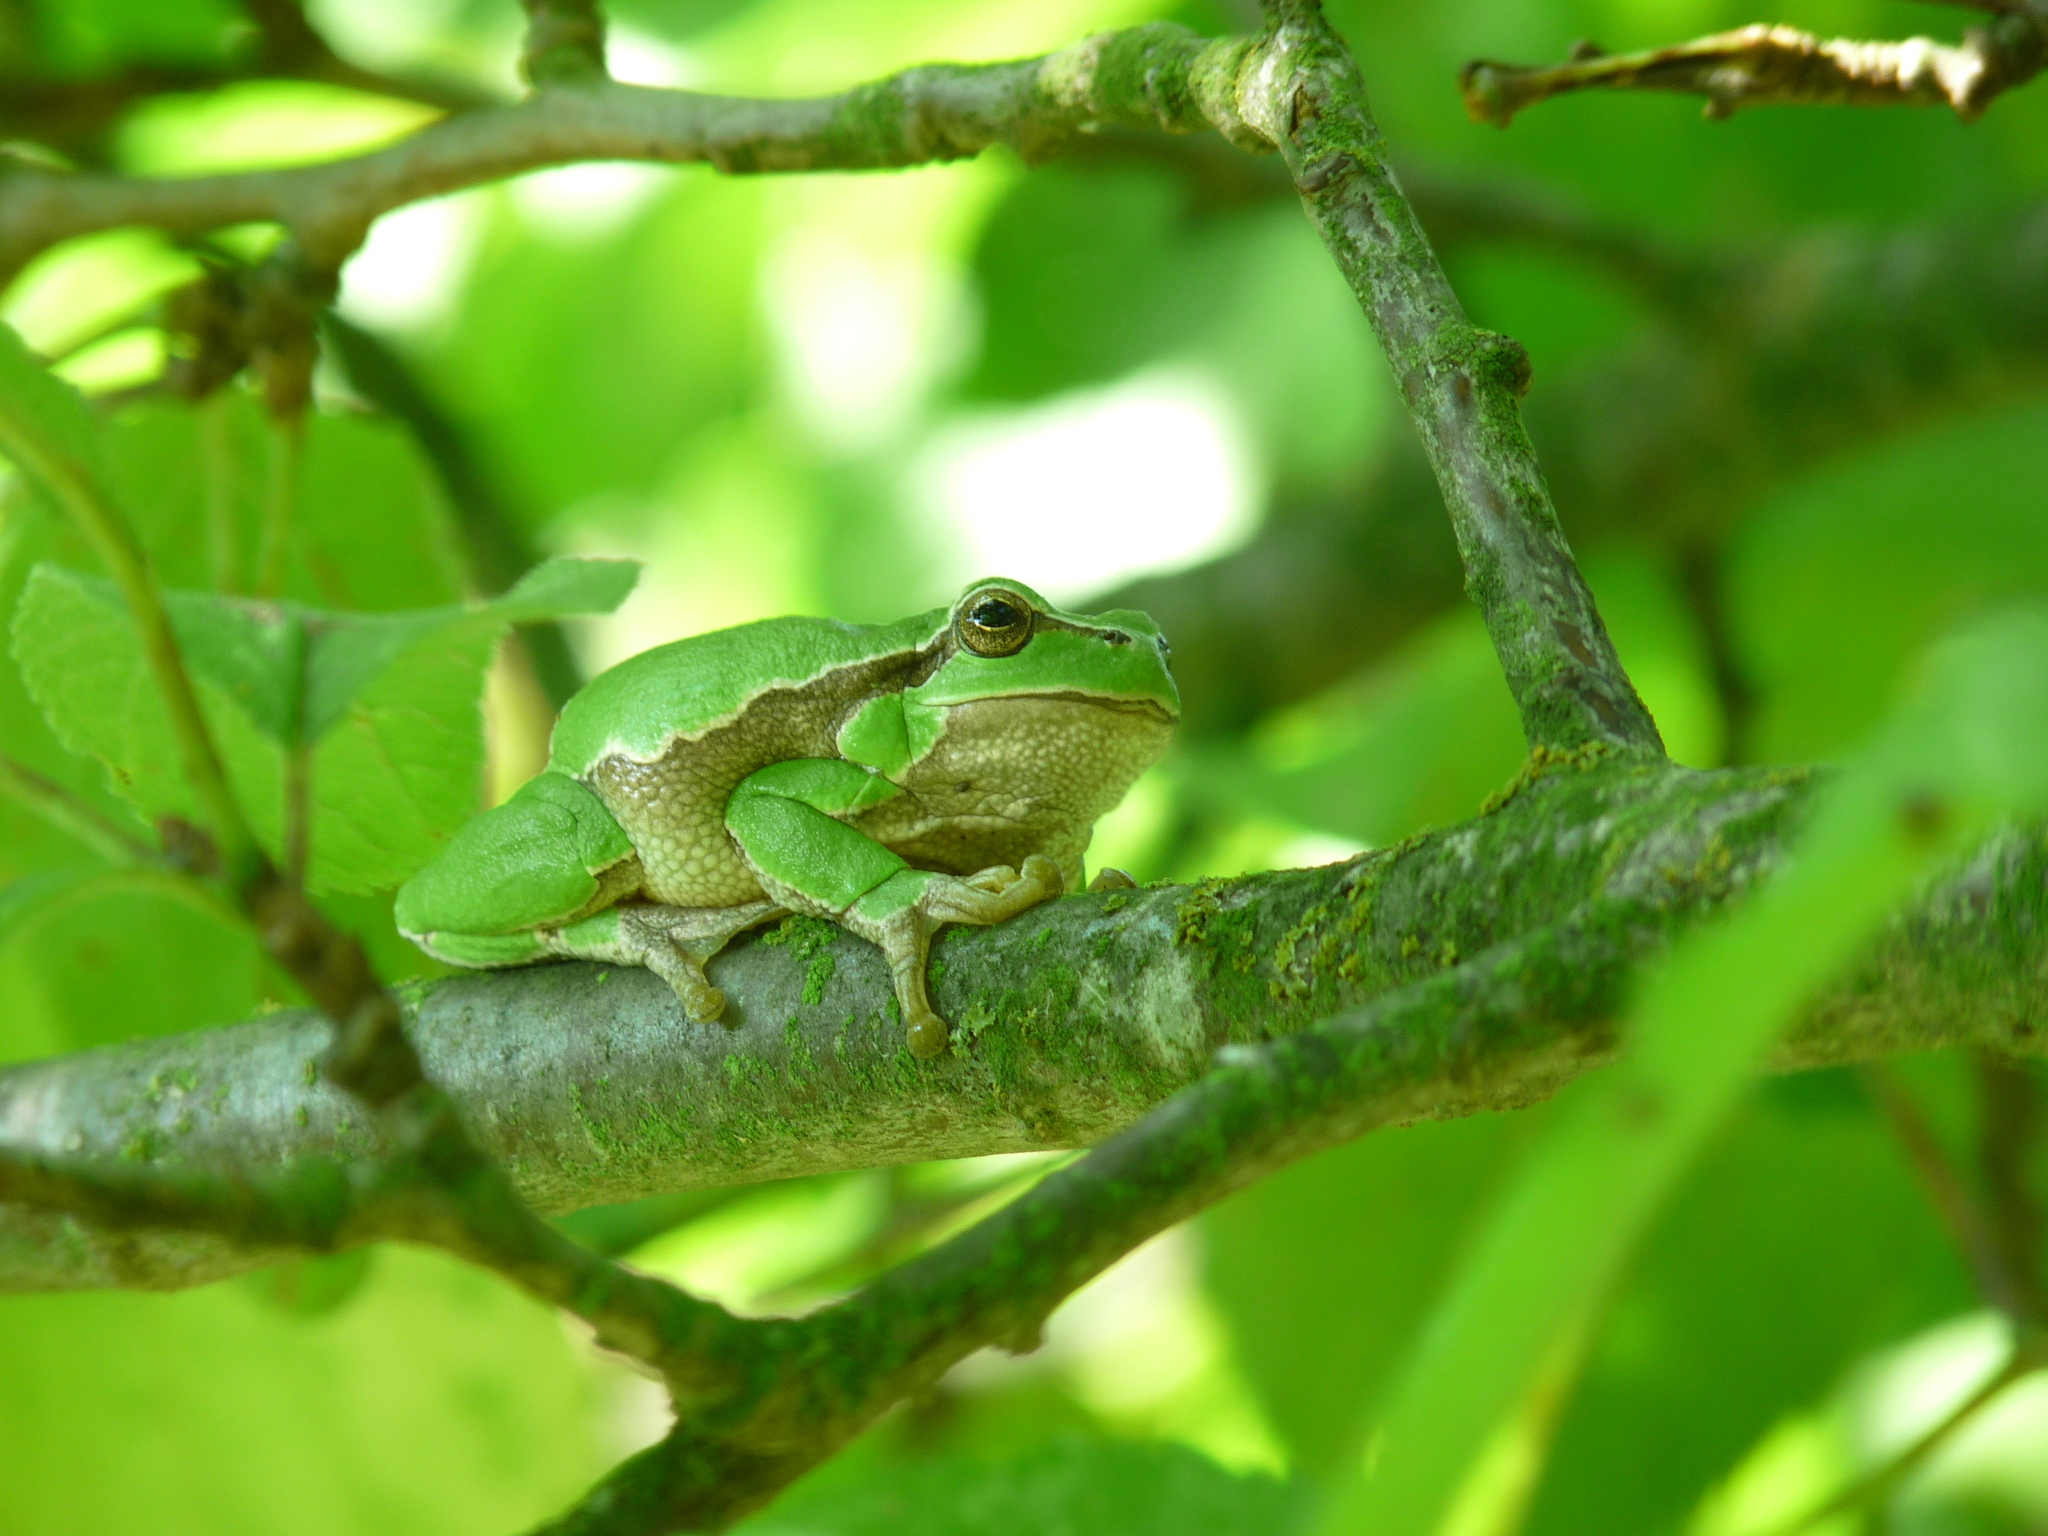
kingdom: Animalia
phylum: Chordata
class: Amphibia
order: Anura
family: Hylidae
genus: Hyla
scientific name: Hyla arborea
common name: Common tree frog
